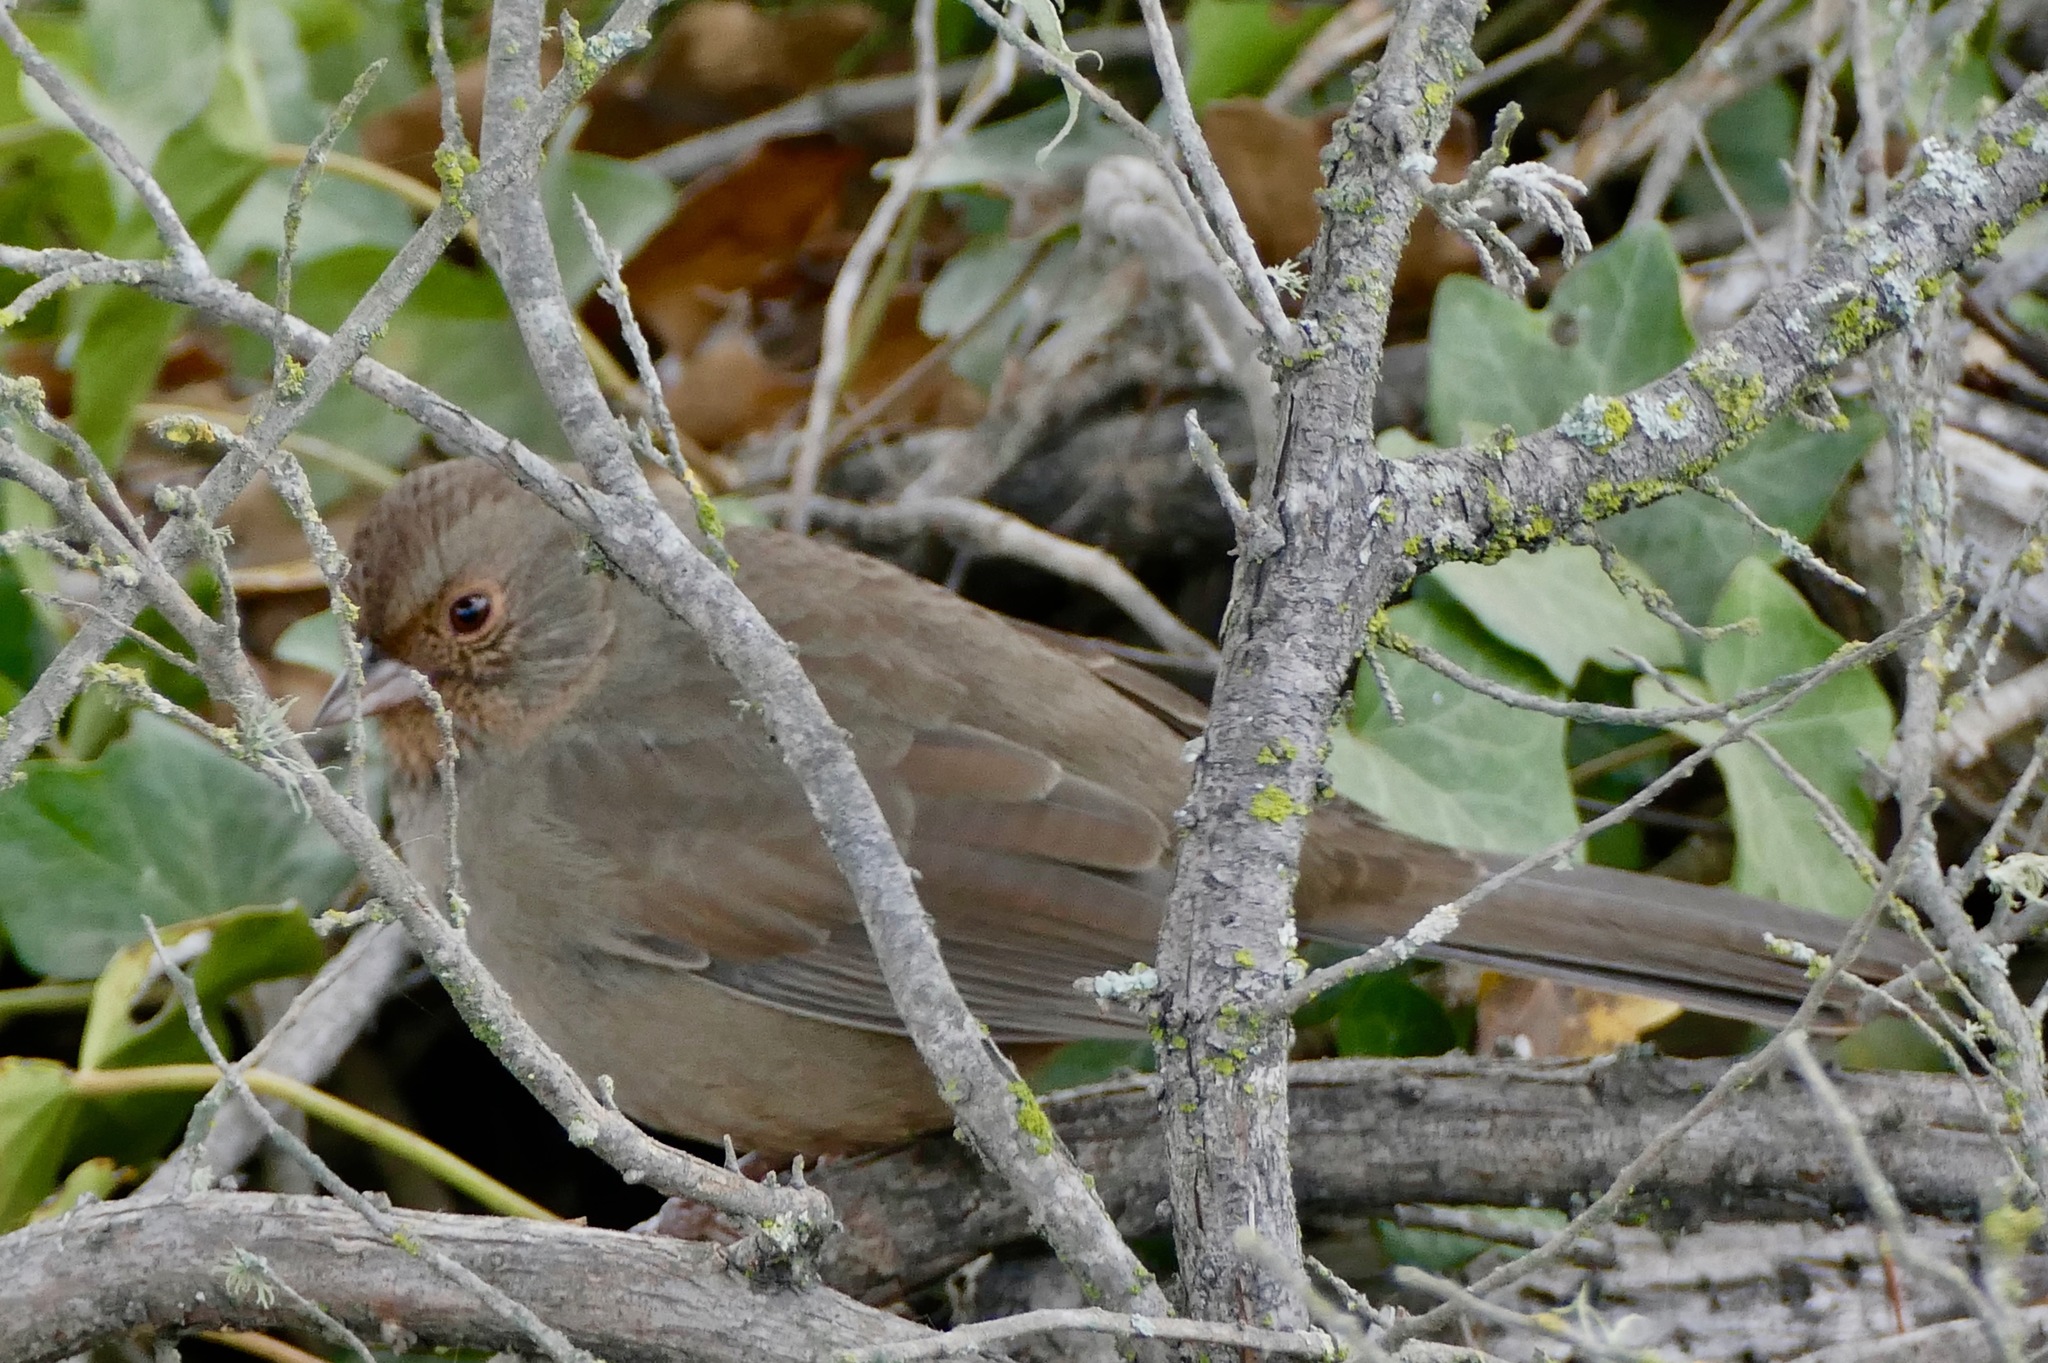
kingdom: Animalia
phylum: Chordata
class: Aves
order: Passeriformes
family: Passerellidae
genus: Melozone
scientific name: Melozone crissalis
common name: California towhee
